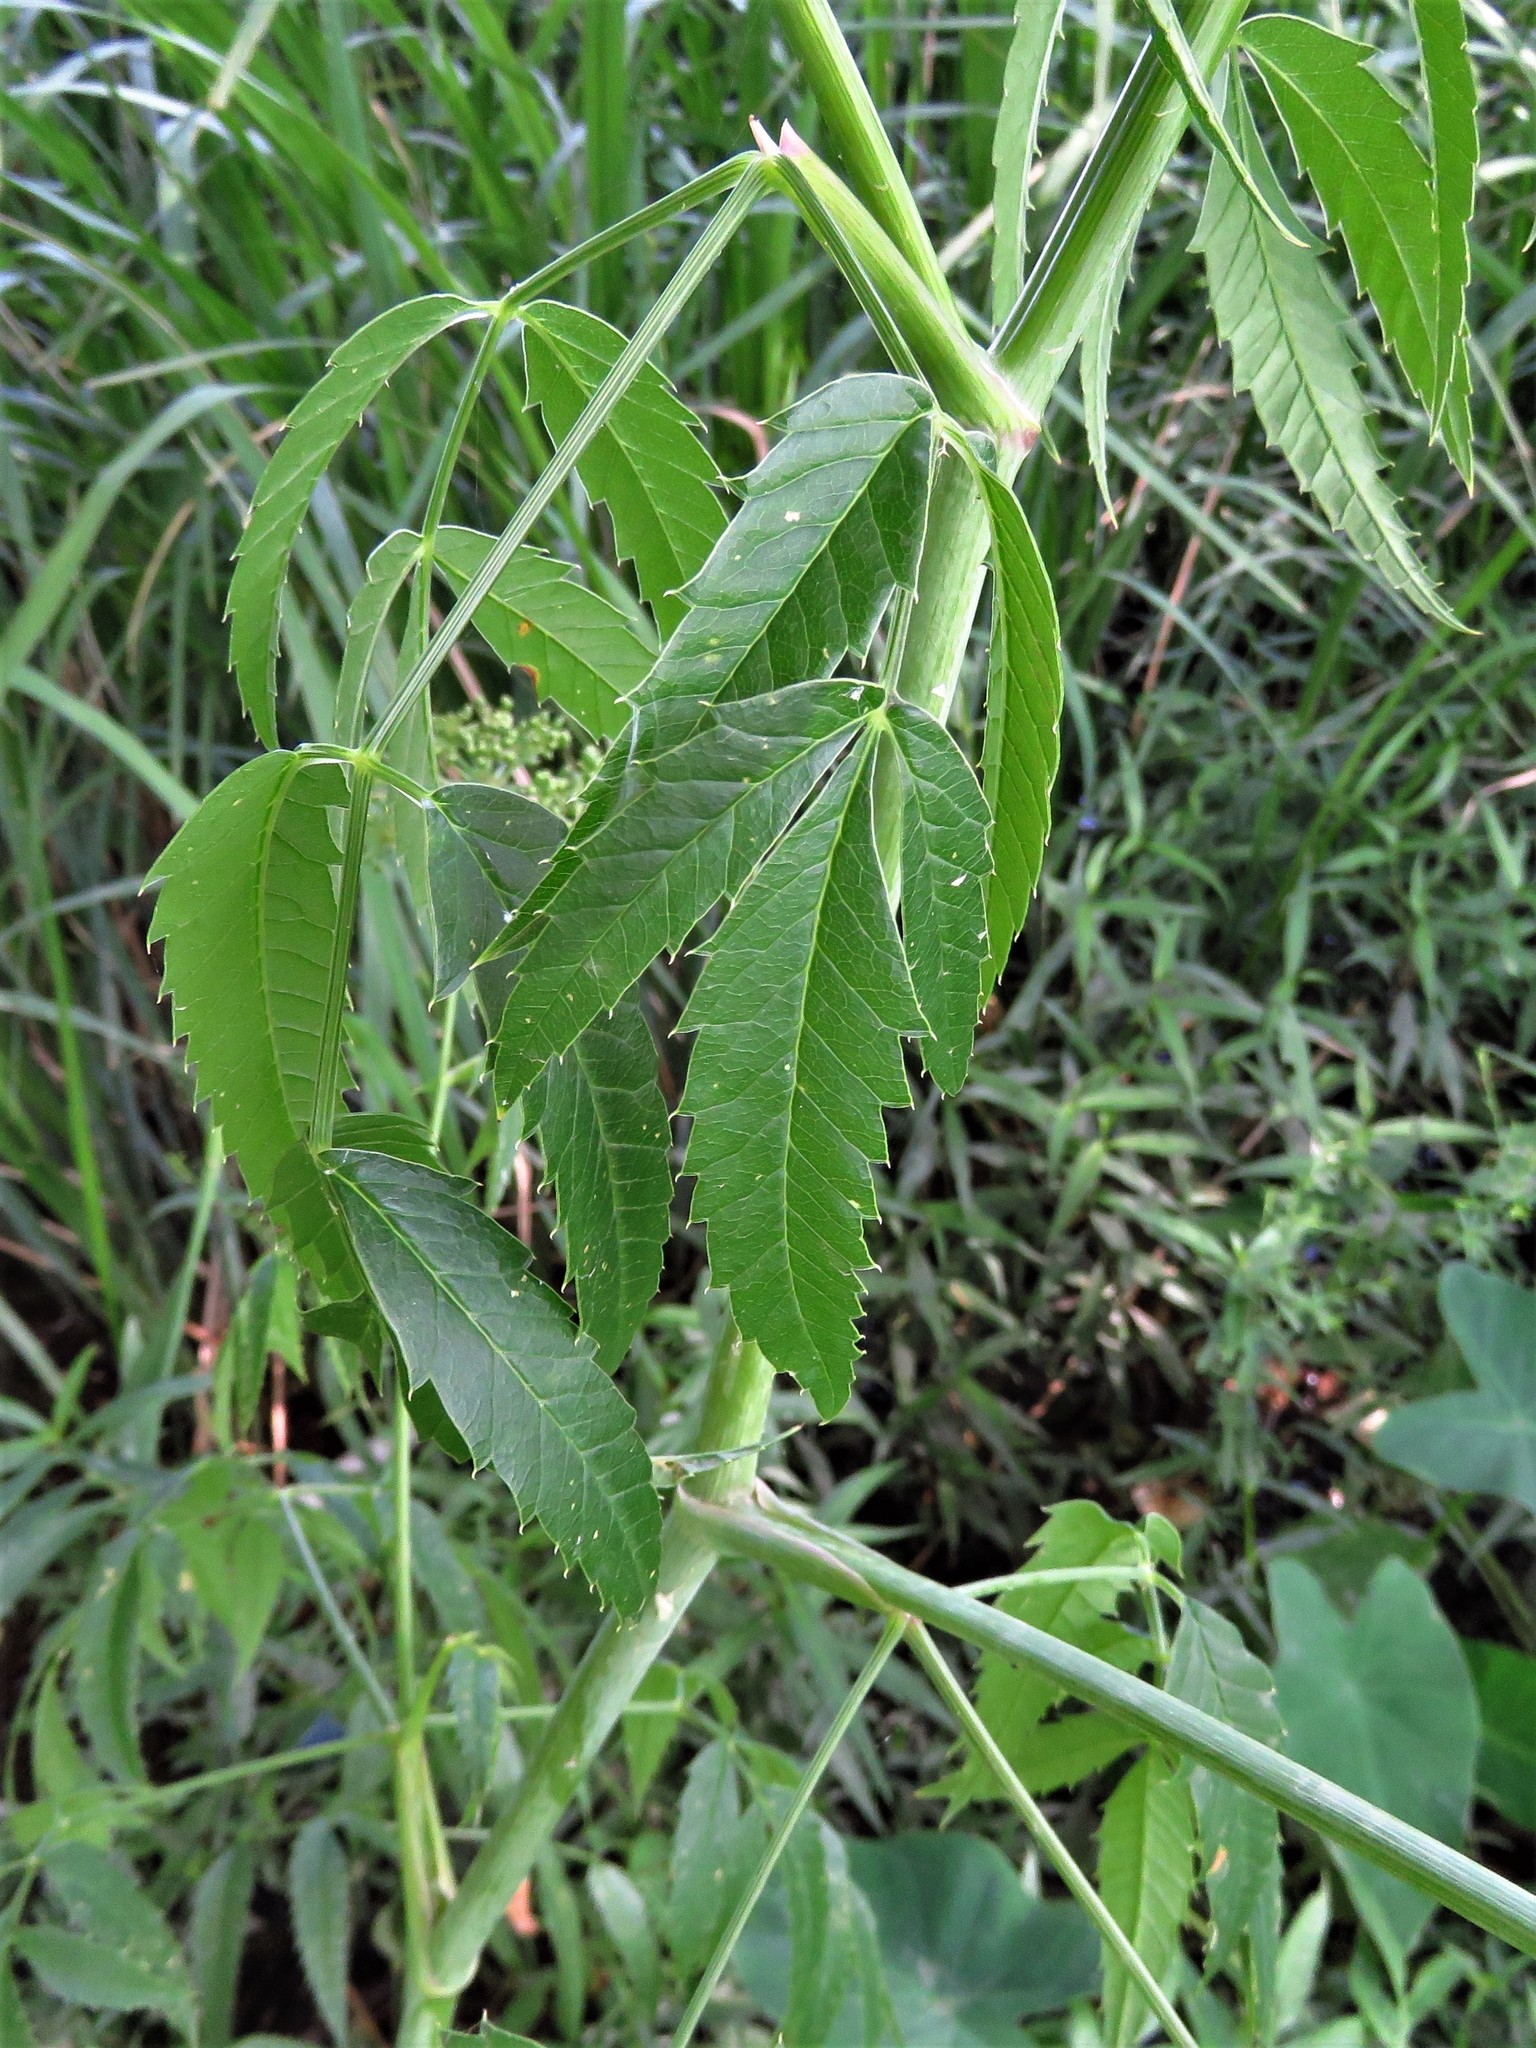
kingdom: Plantae
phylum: Tracheophyta
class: Magnoliopsida
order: Apiales
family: Apiaceae
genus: Cicuta
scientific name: Cicuta maculata
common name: Spotted cowbane
